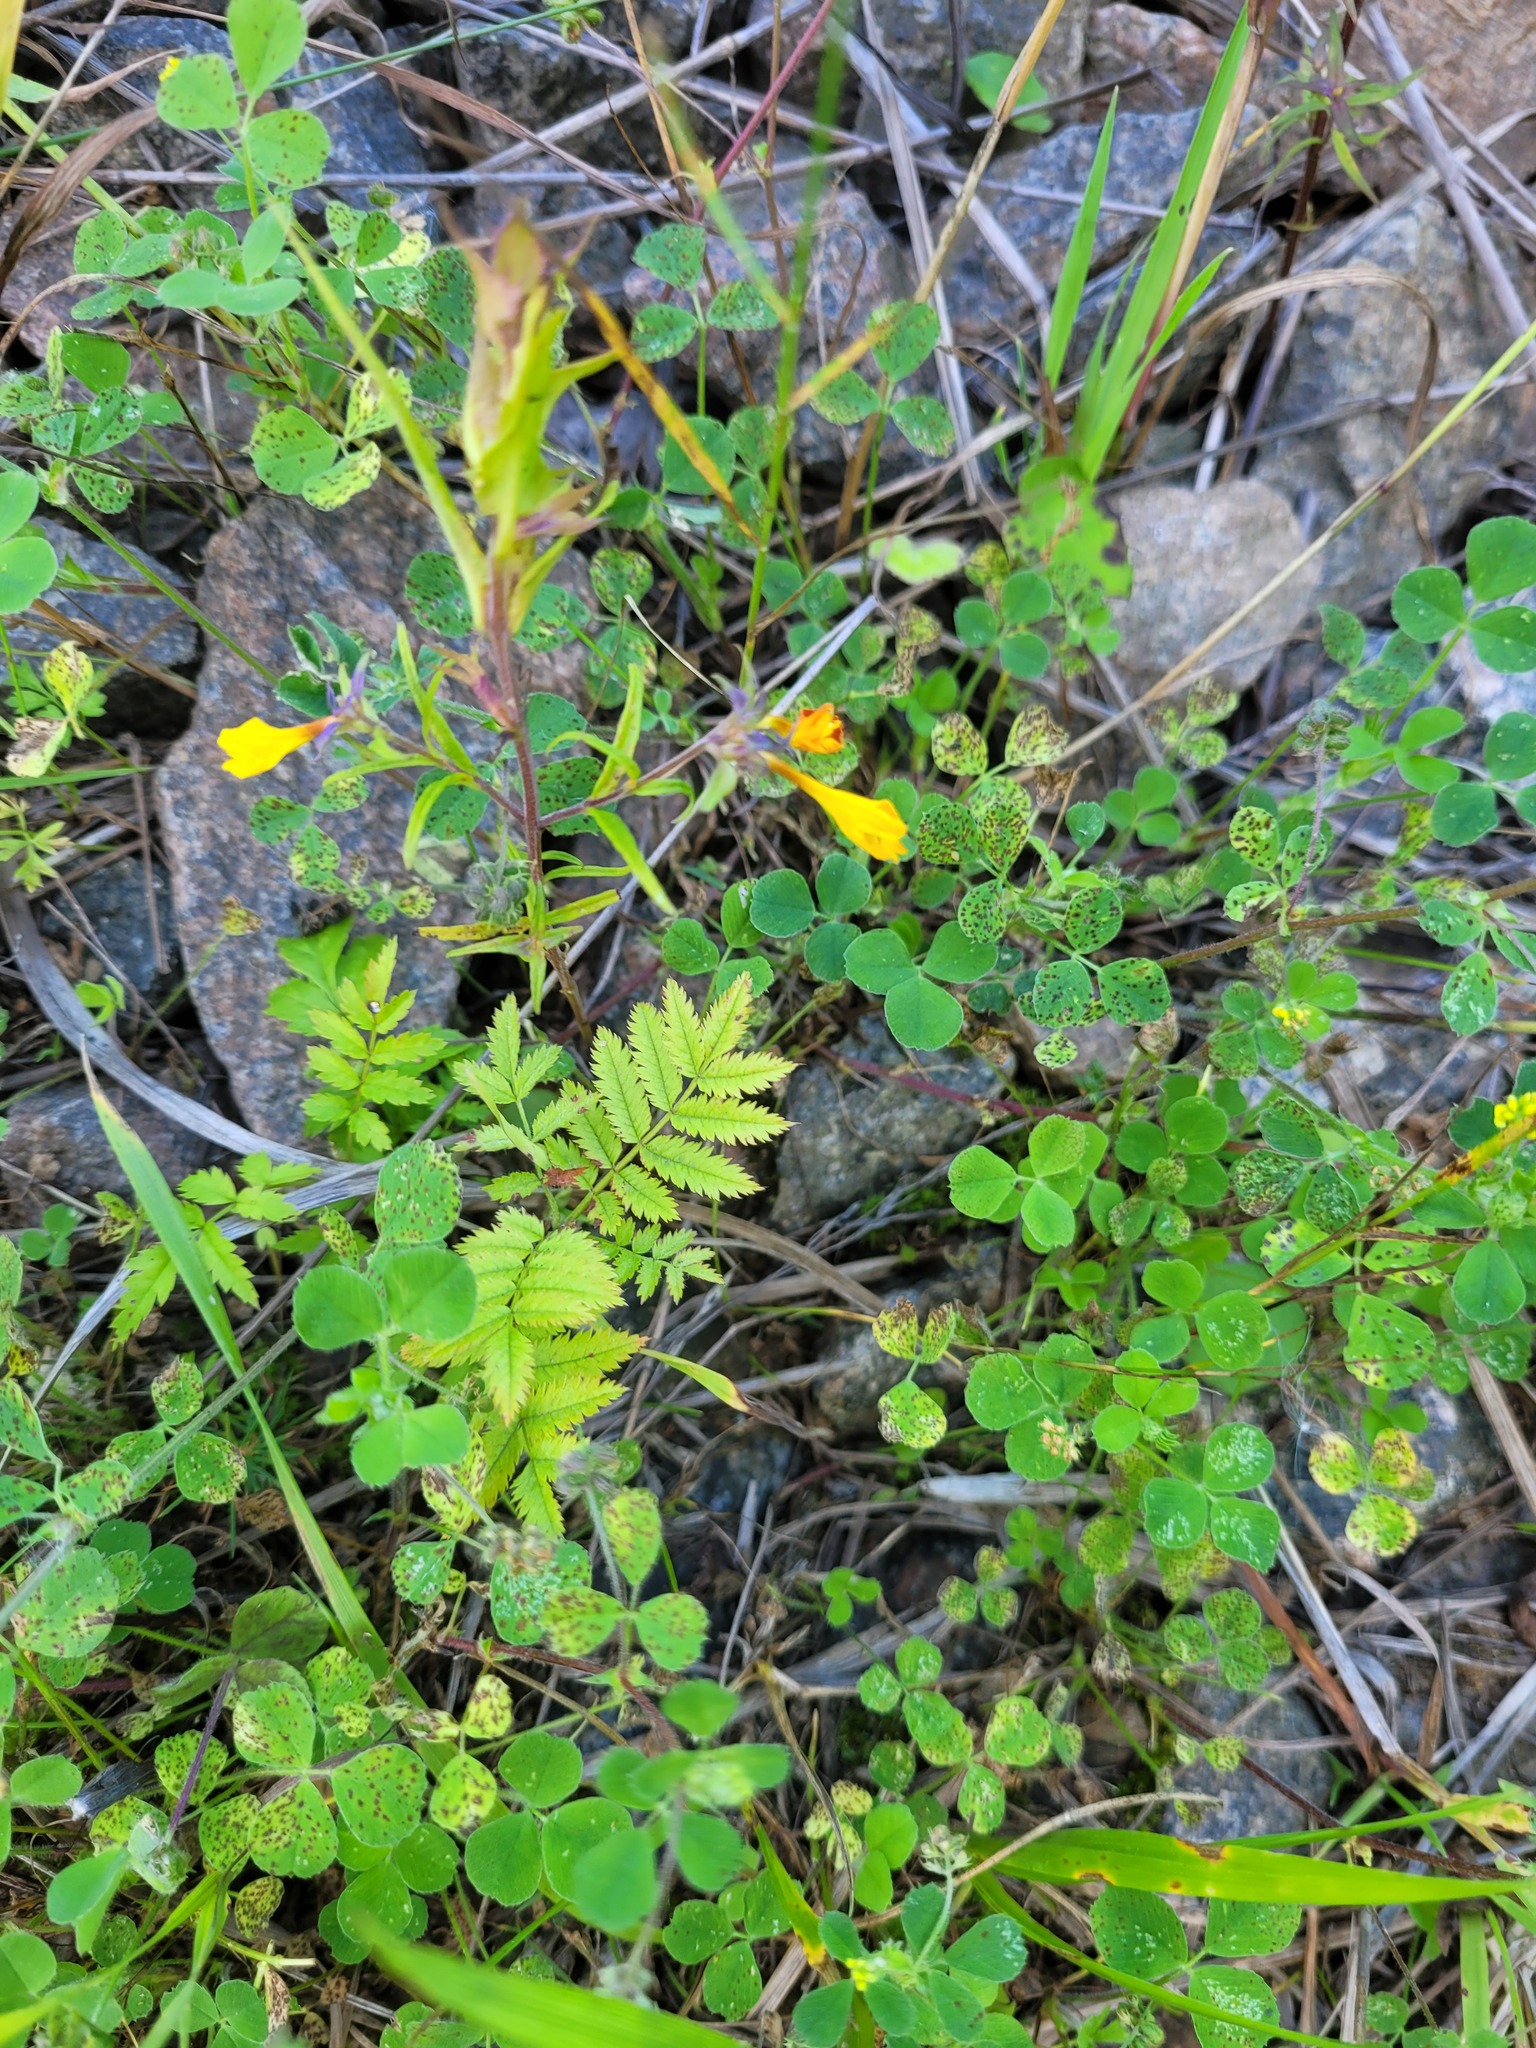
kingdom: Plantae
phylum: Tracheophyta
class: Magnoliopsida
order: Rosales
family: Rosaceae
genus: Sorbus
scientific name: Sorbus aucuparia
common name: Rowan
